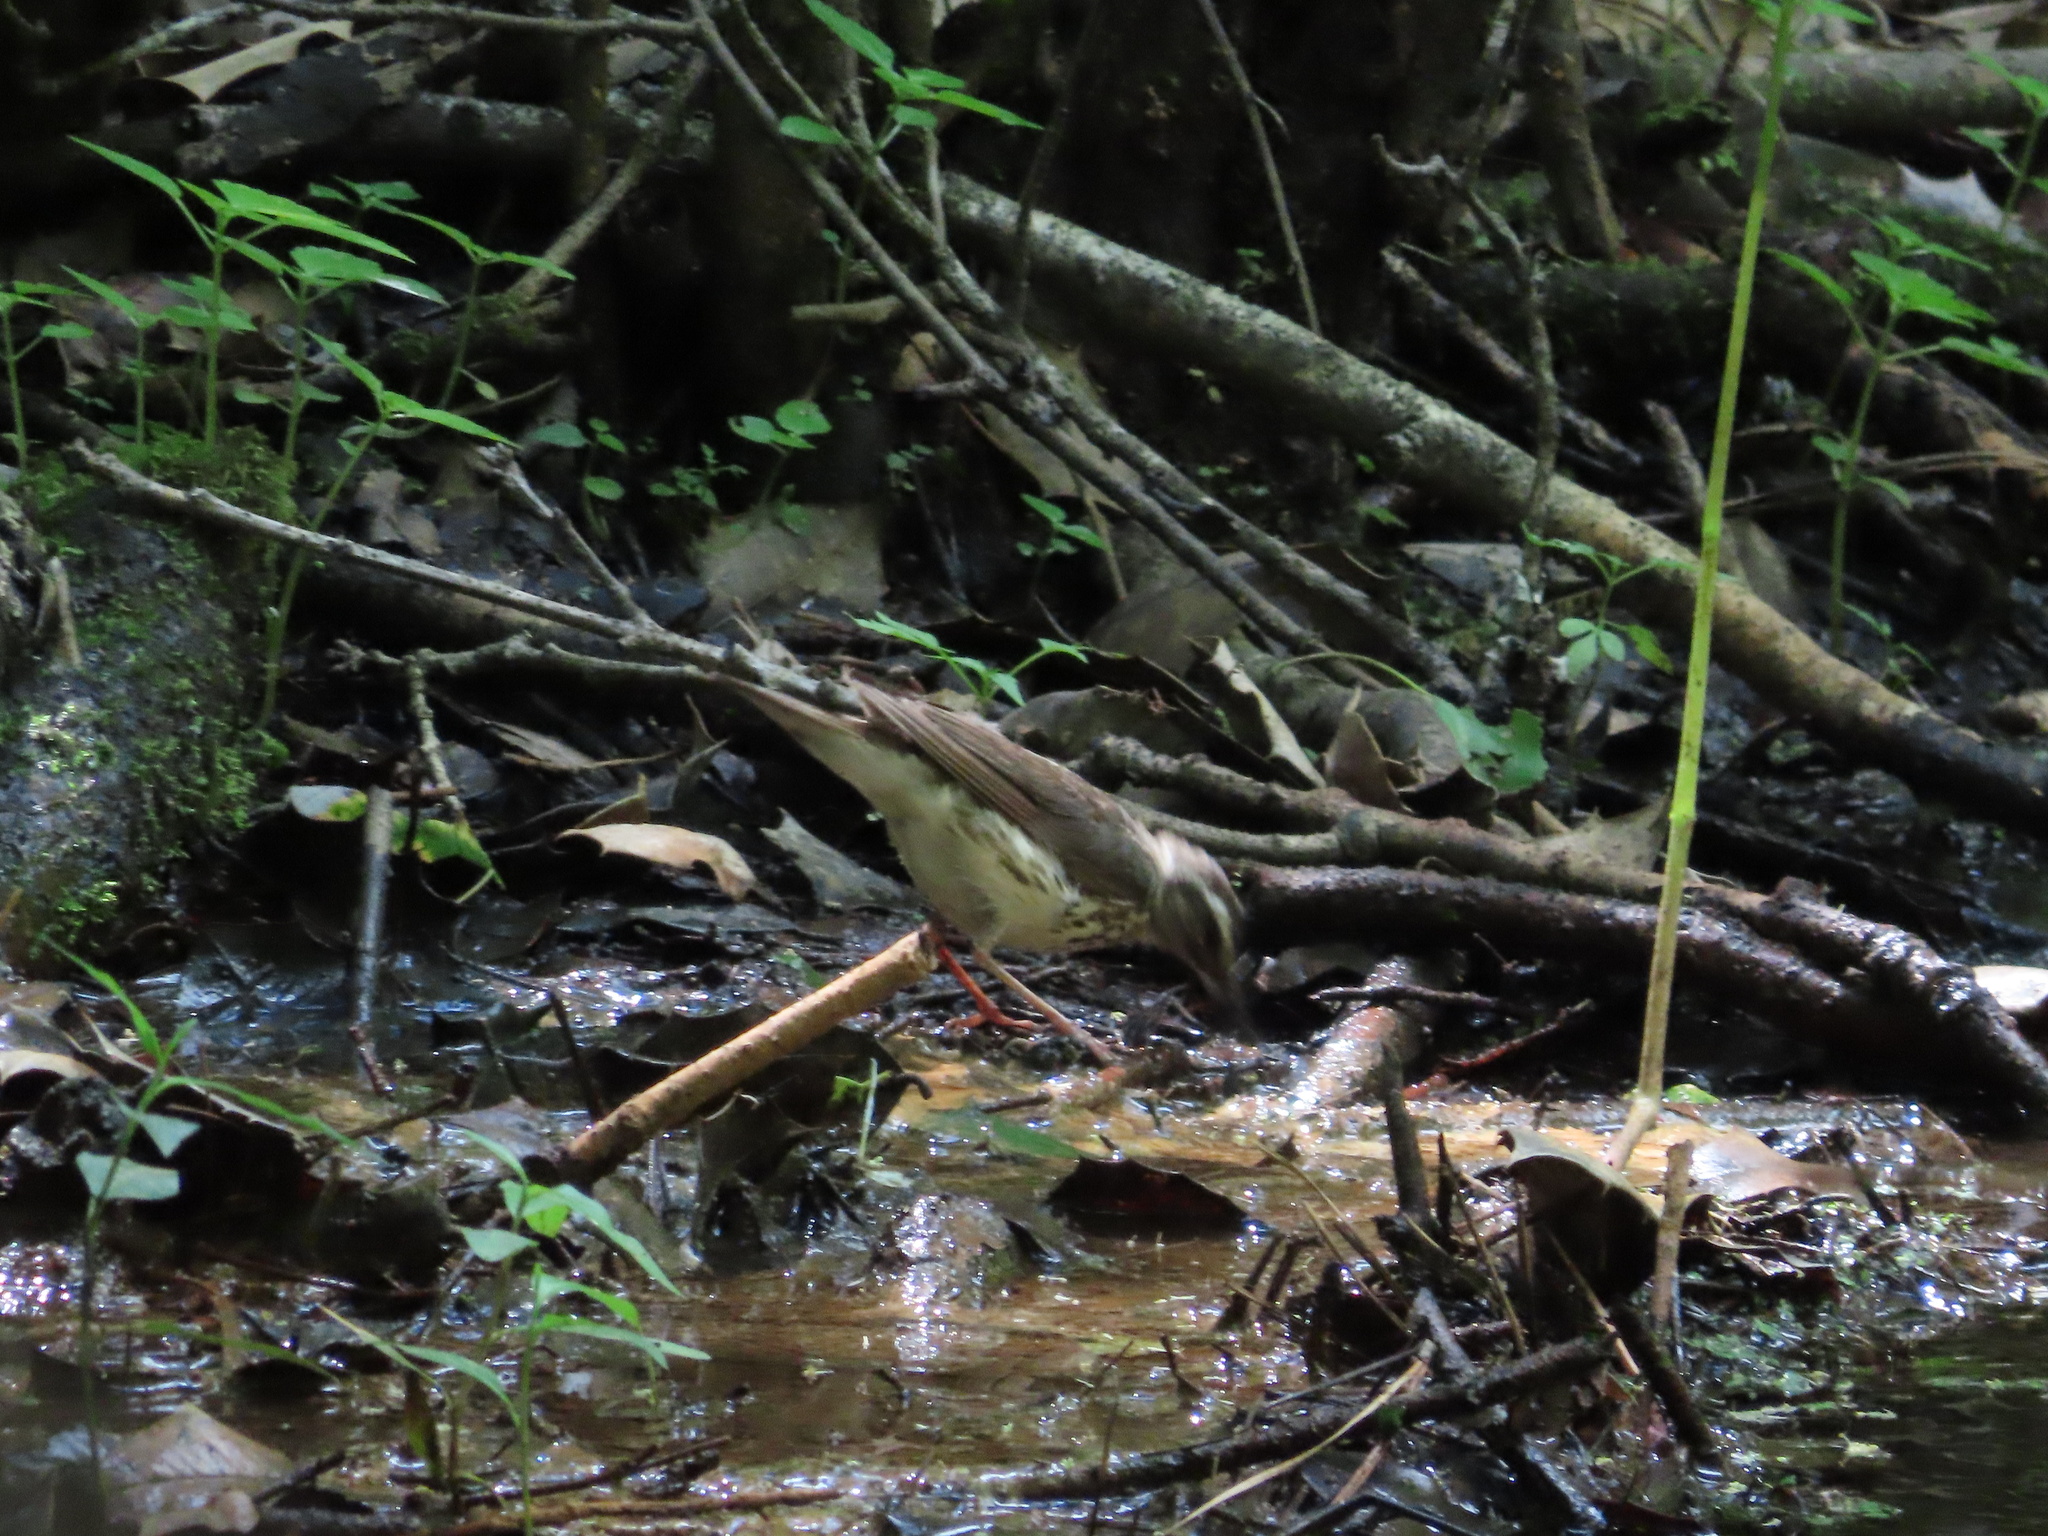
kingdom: Animalia
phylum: Chordata
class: Aves
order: Passeriformes
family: Parulidae
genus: Parkesia
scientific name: Parkesia motacilla
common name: Louisiana waterthrush
